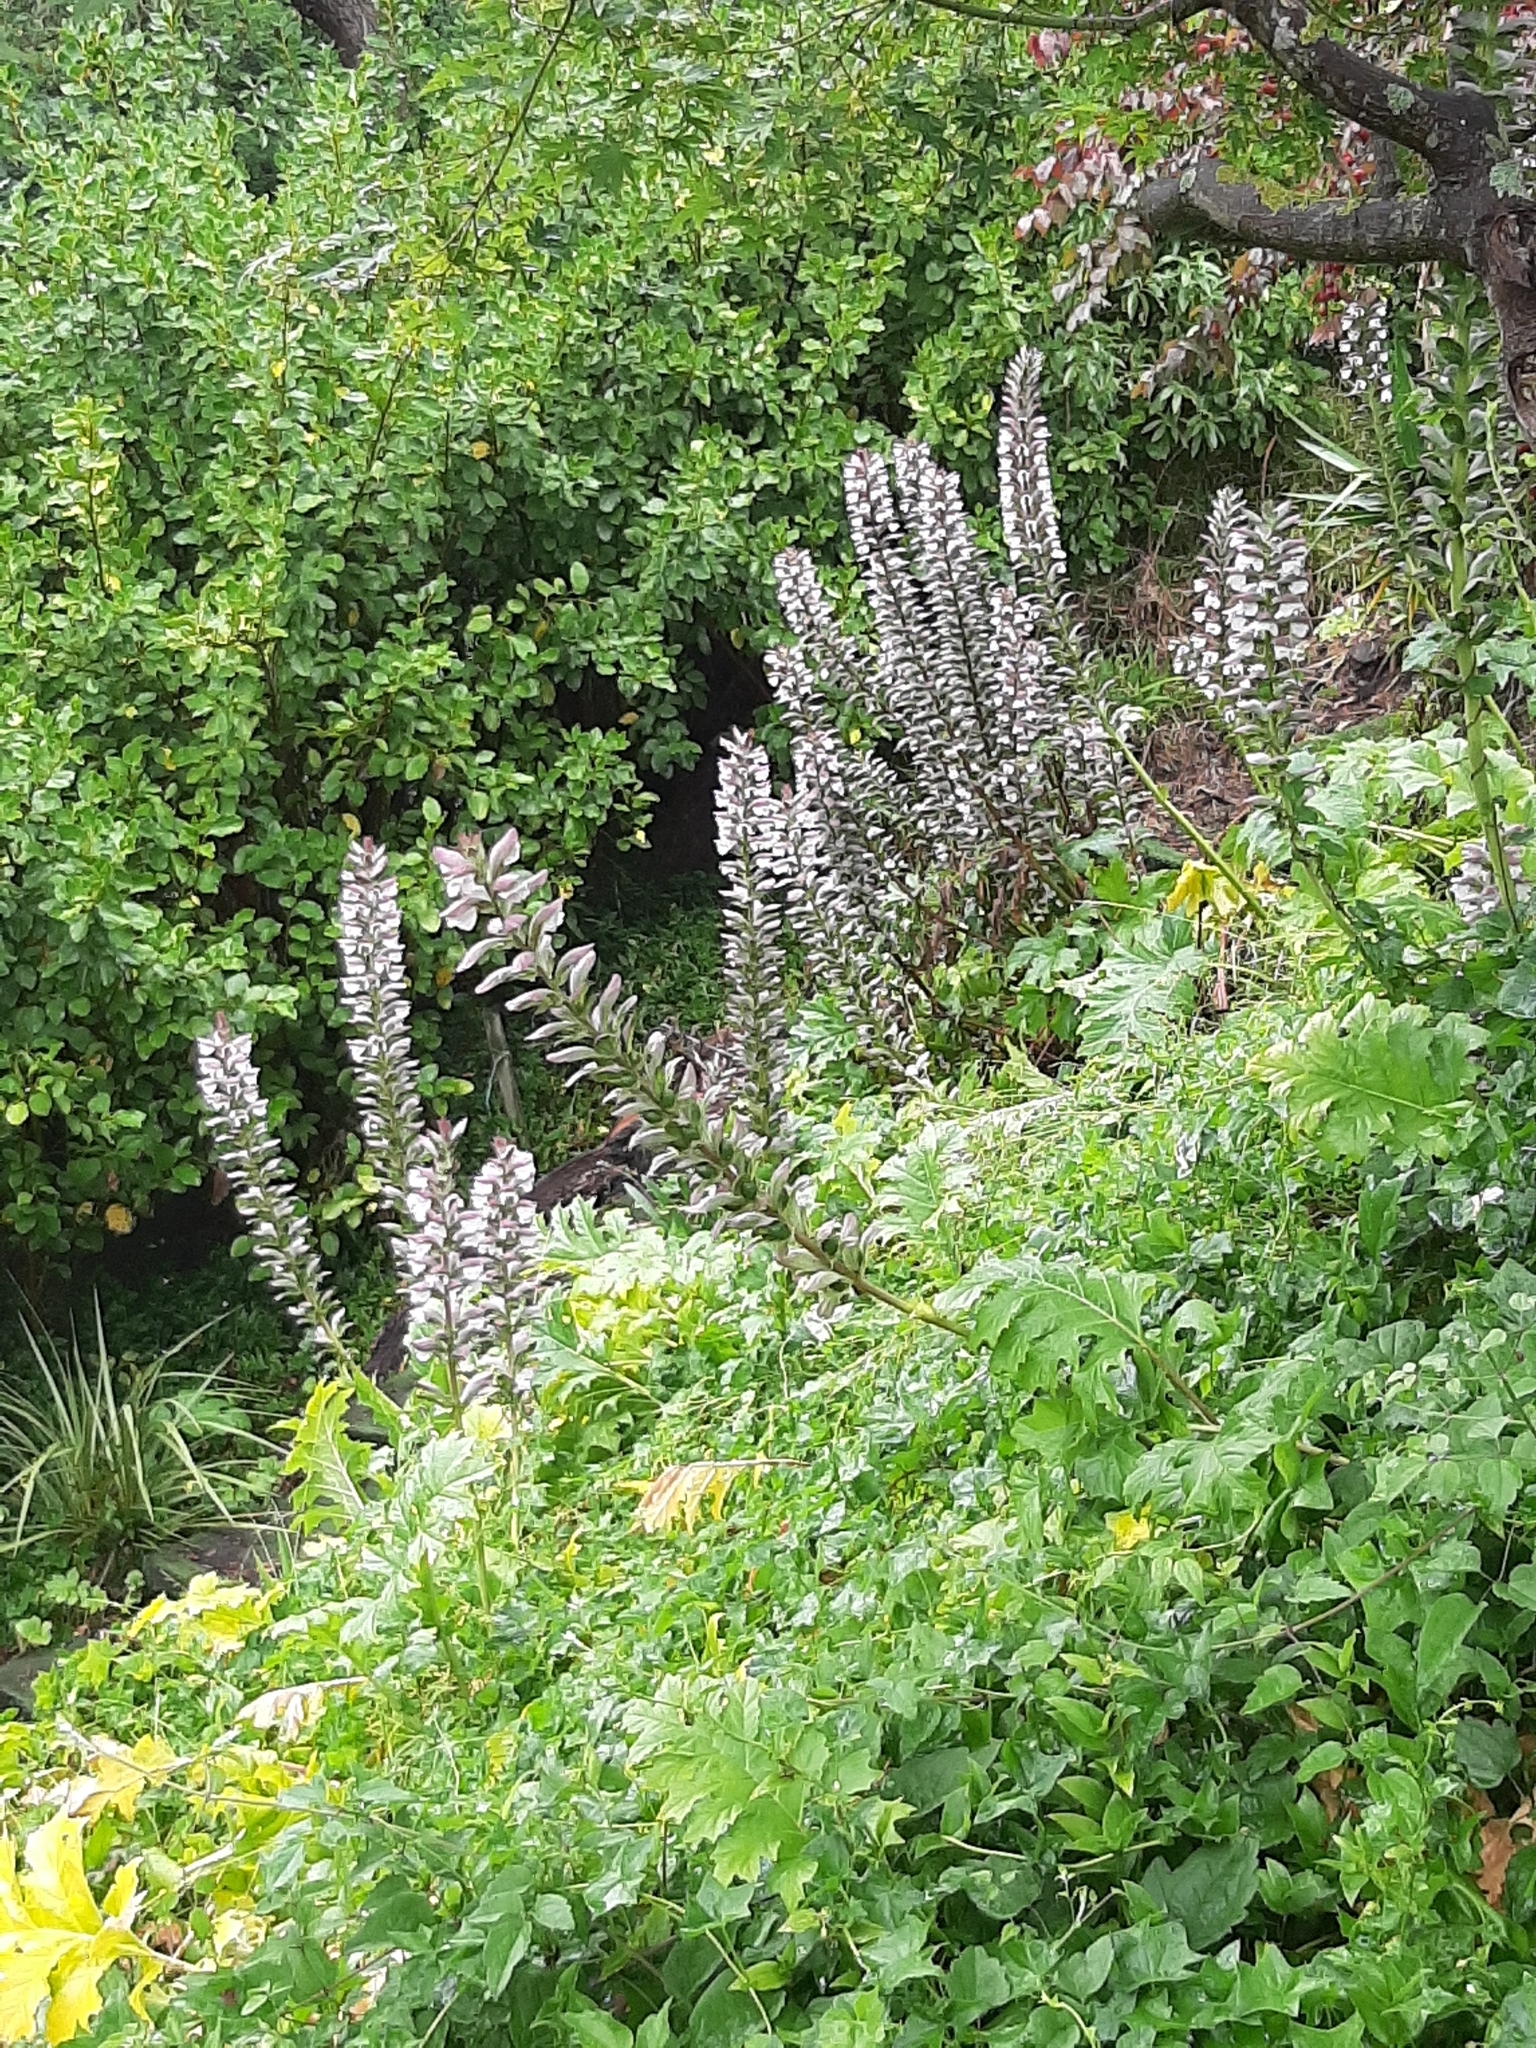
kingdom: Plantae
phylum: Tracheophyta
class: Magnoliopsida
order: Lamiales
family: Acanthaceae
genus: Acanthus
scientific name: Acanthus mollis
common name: Bear's-breech
